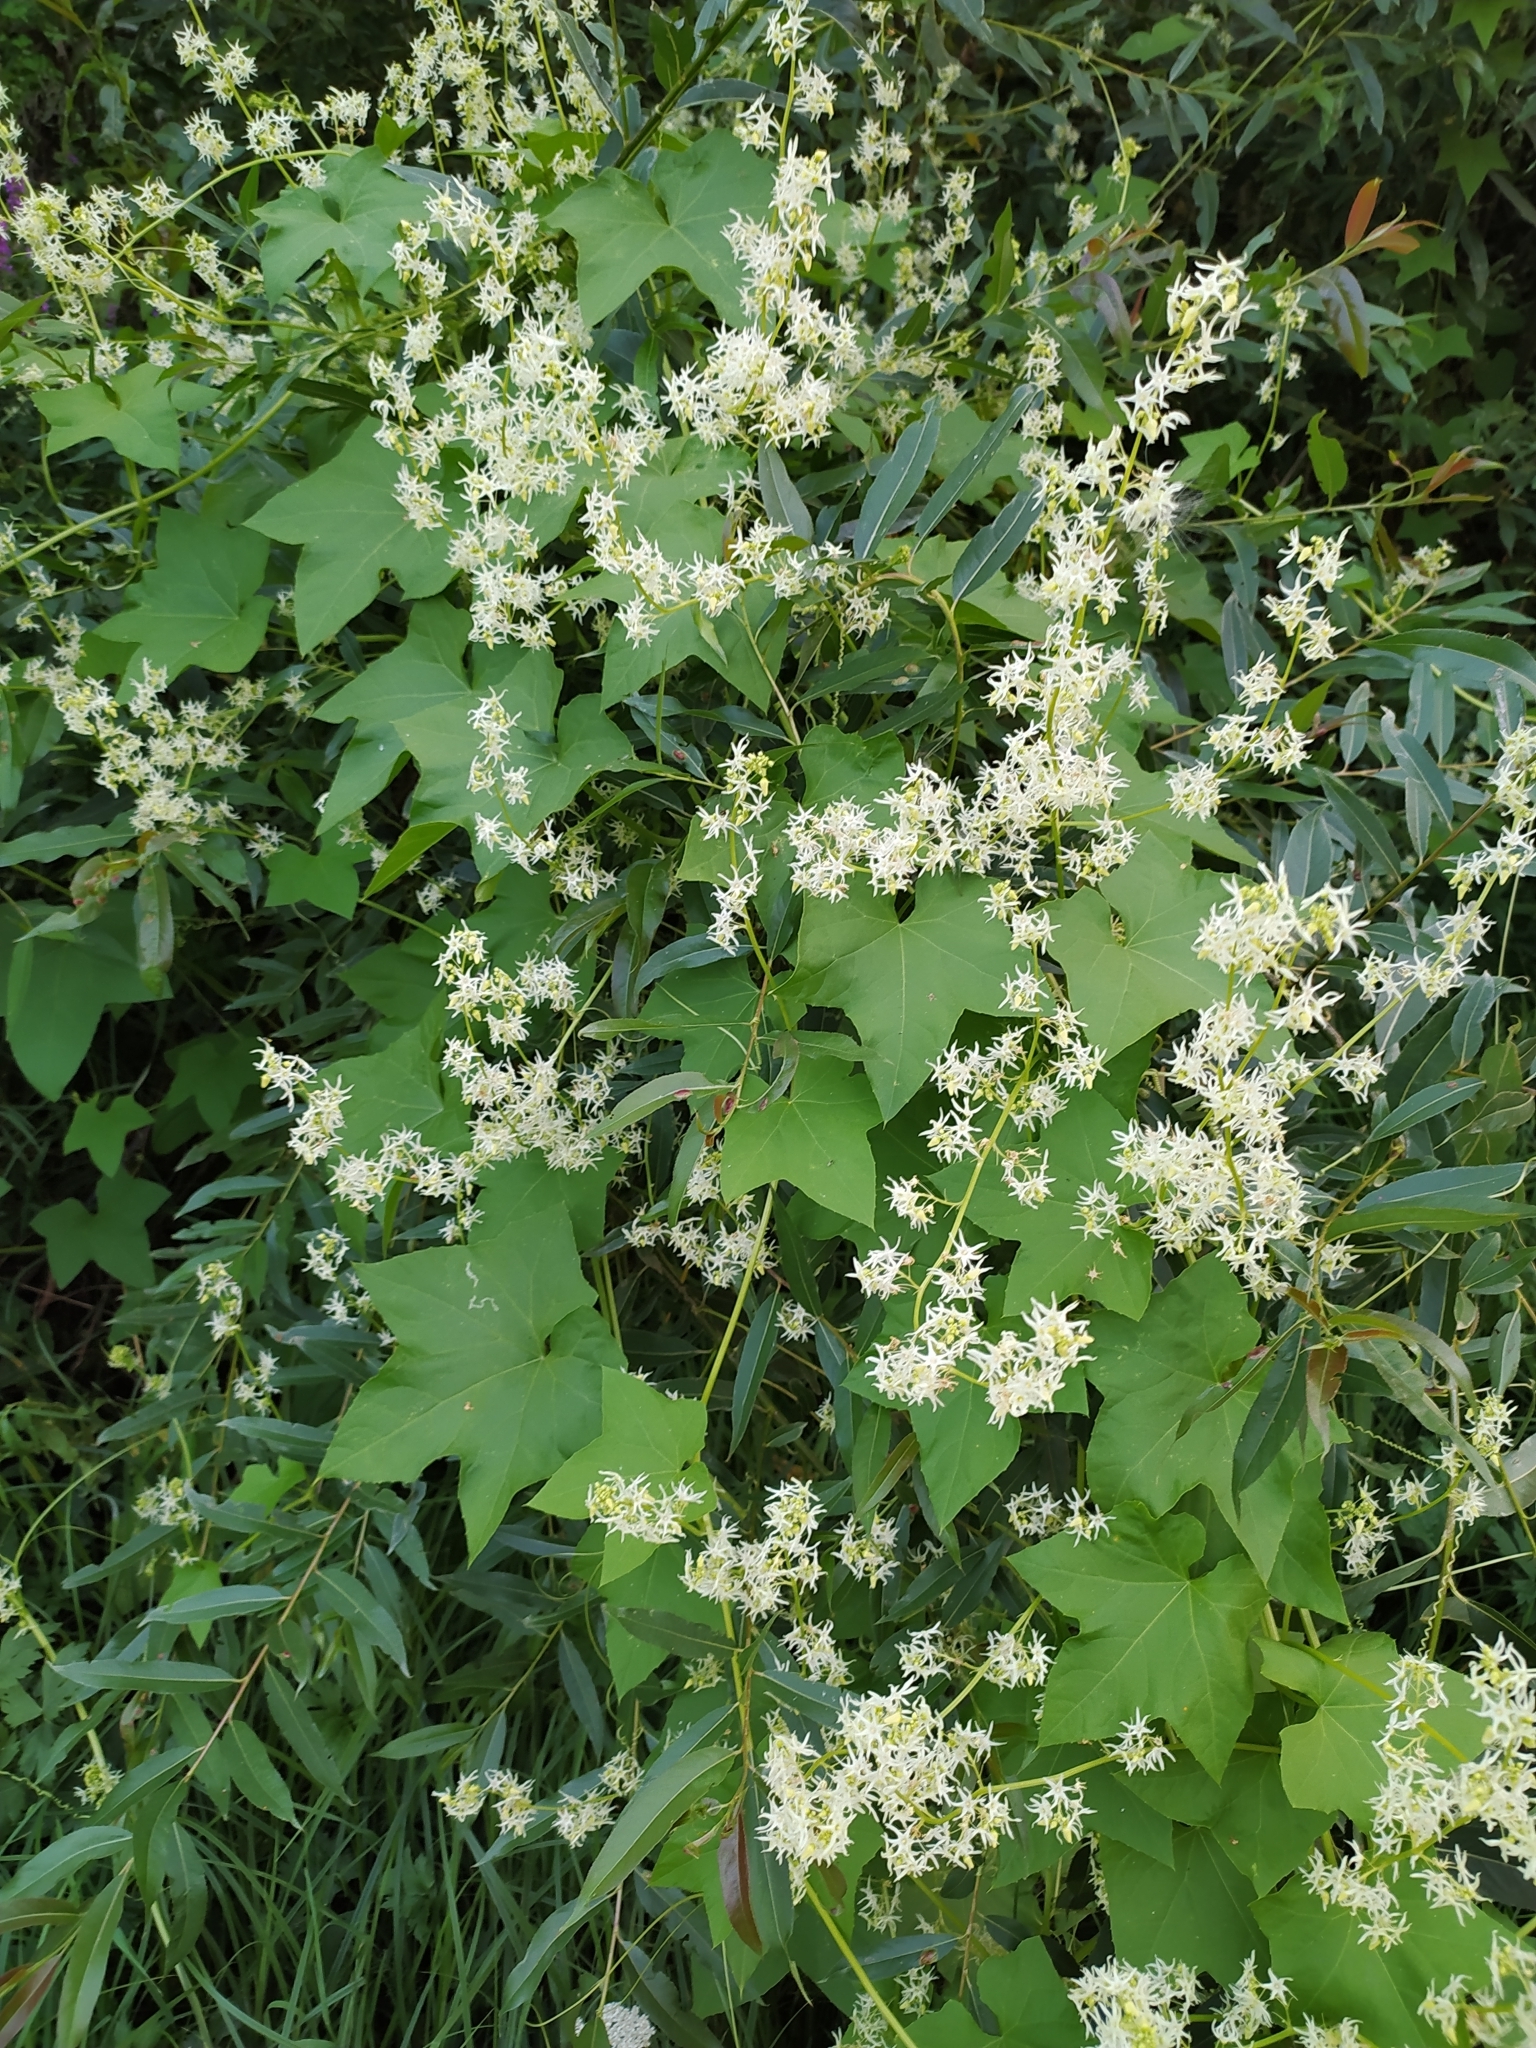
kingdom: Plantae
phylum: Tracheophyta
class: Magnoliopsida
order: Cucurbitales
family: Cucurbitaceae
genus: Echinocystis
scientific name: Echinocystis lobata
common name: Wild cucumber
